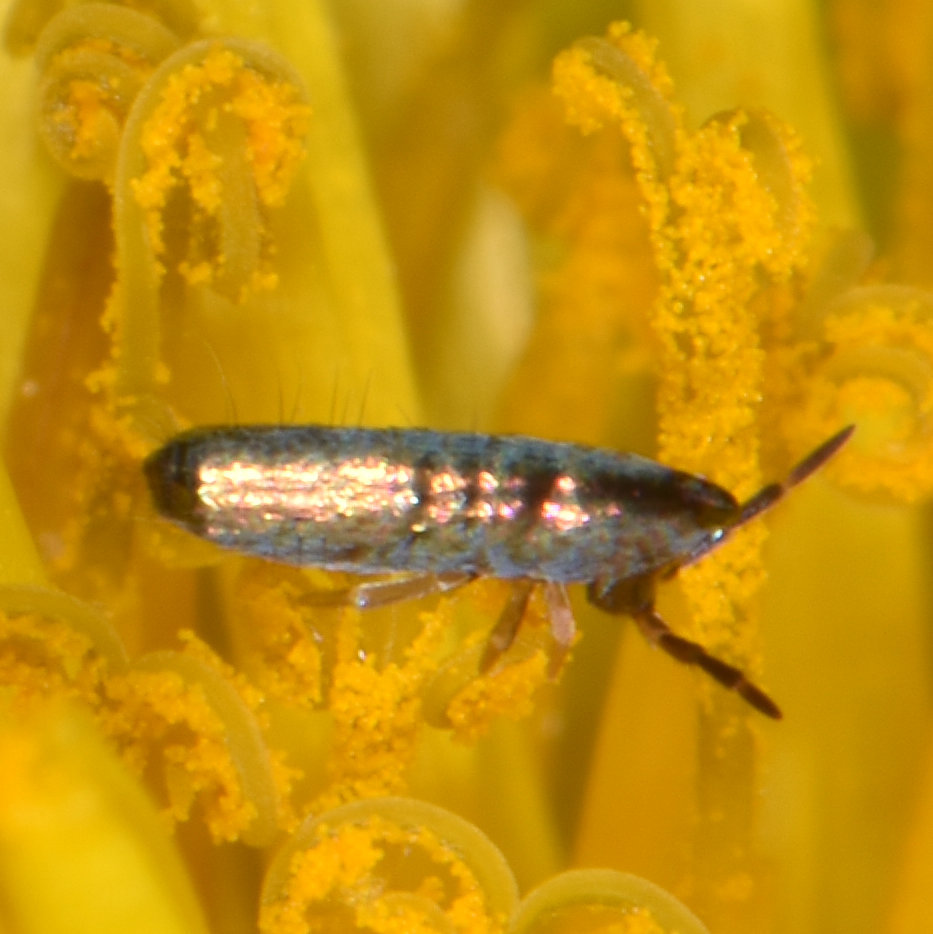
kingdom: Animalia
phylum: Arthropoda
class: Collembola
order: Entomobryomorpha
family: Entomobryidae
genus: Lepidocyrtus
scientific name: Lepidocyrtus paradoxus
